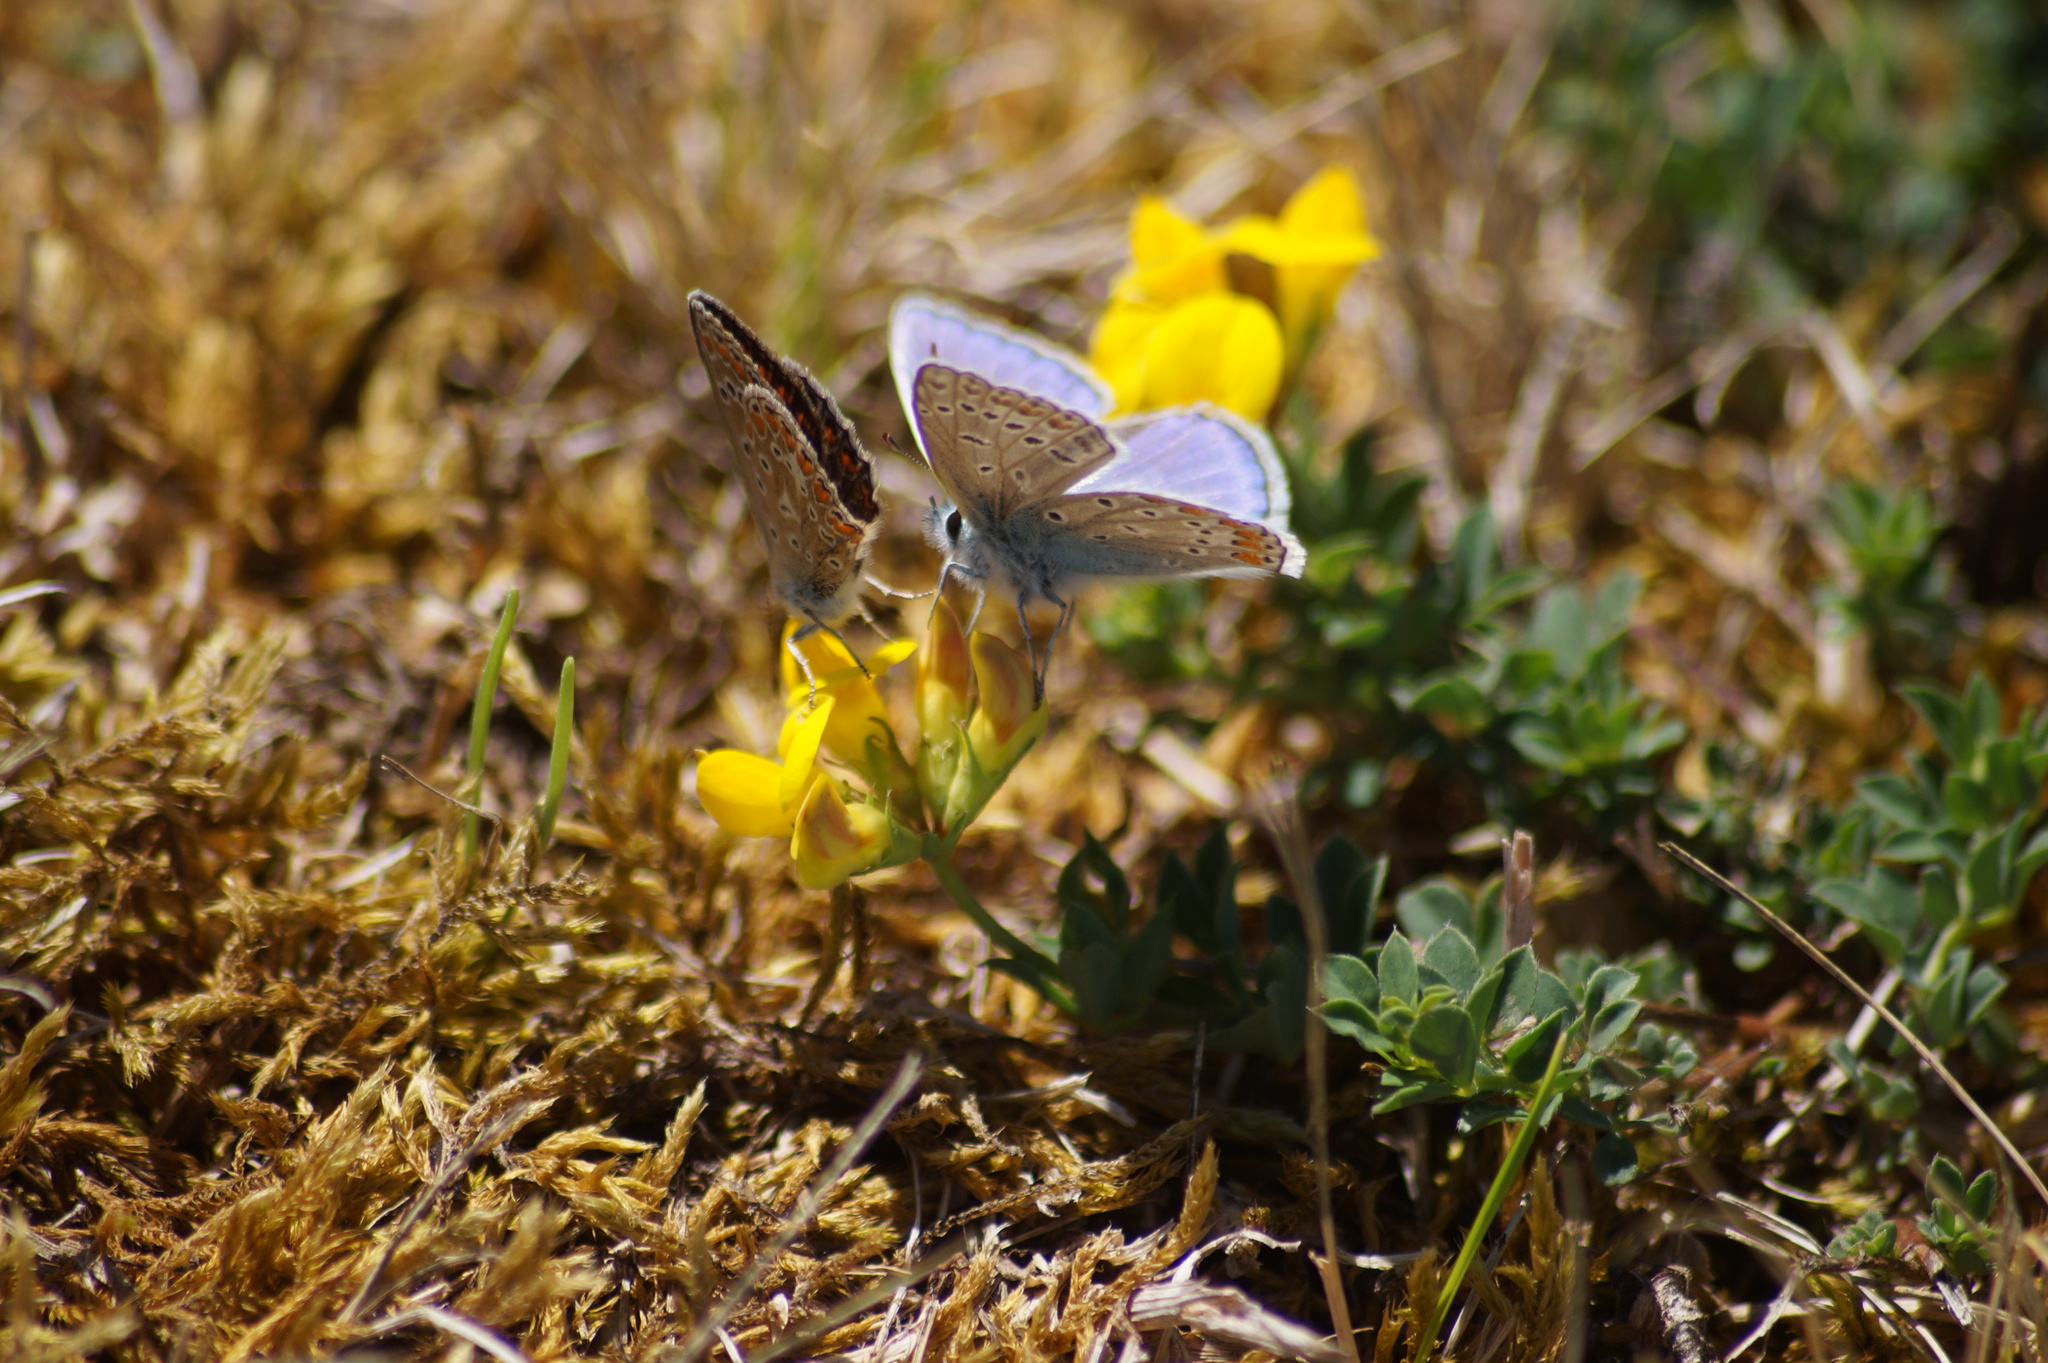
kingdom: Animalia
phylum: Arthropoda
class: Insecta
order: Lepidoptera
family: Lycaenidae
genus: Polyommatus
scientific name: Polyommatus icarus
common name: Common blue
